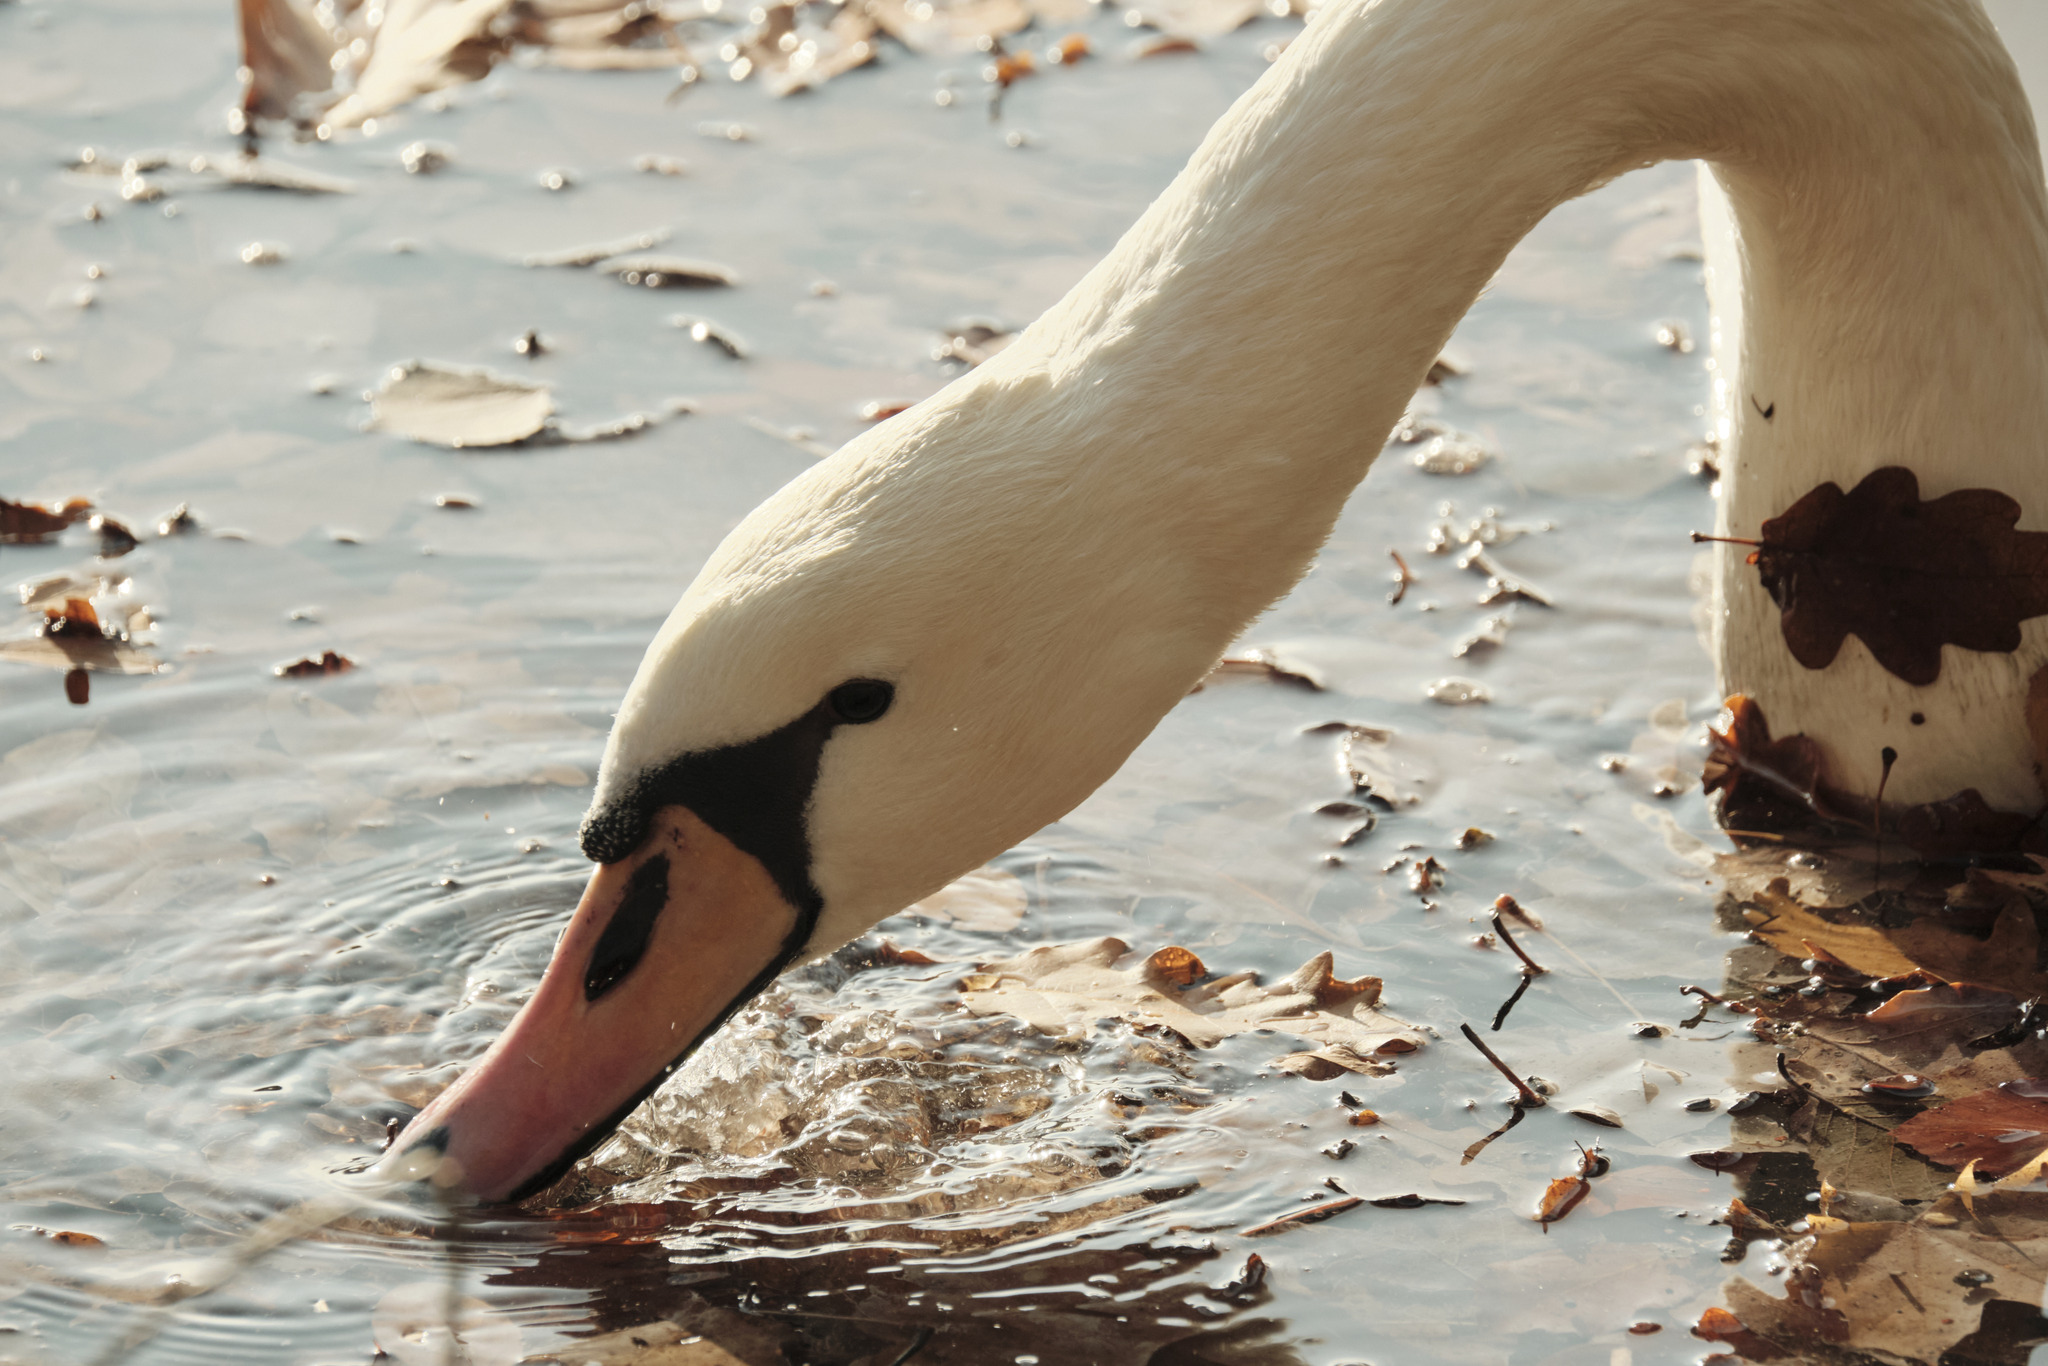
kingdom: Animalia
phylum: Chordata
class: Aves
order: Anseriformes
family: Anatidae
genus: Cygnus
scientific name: Cygnus olor
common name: Mute swan
